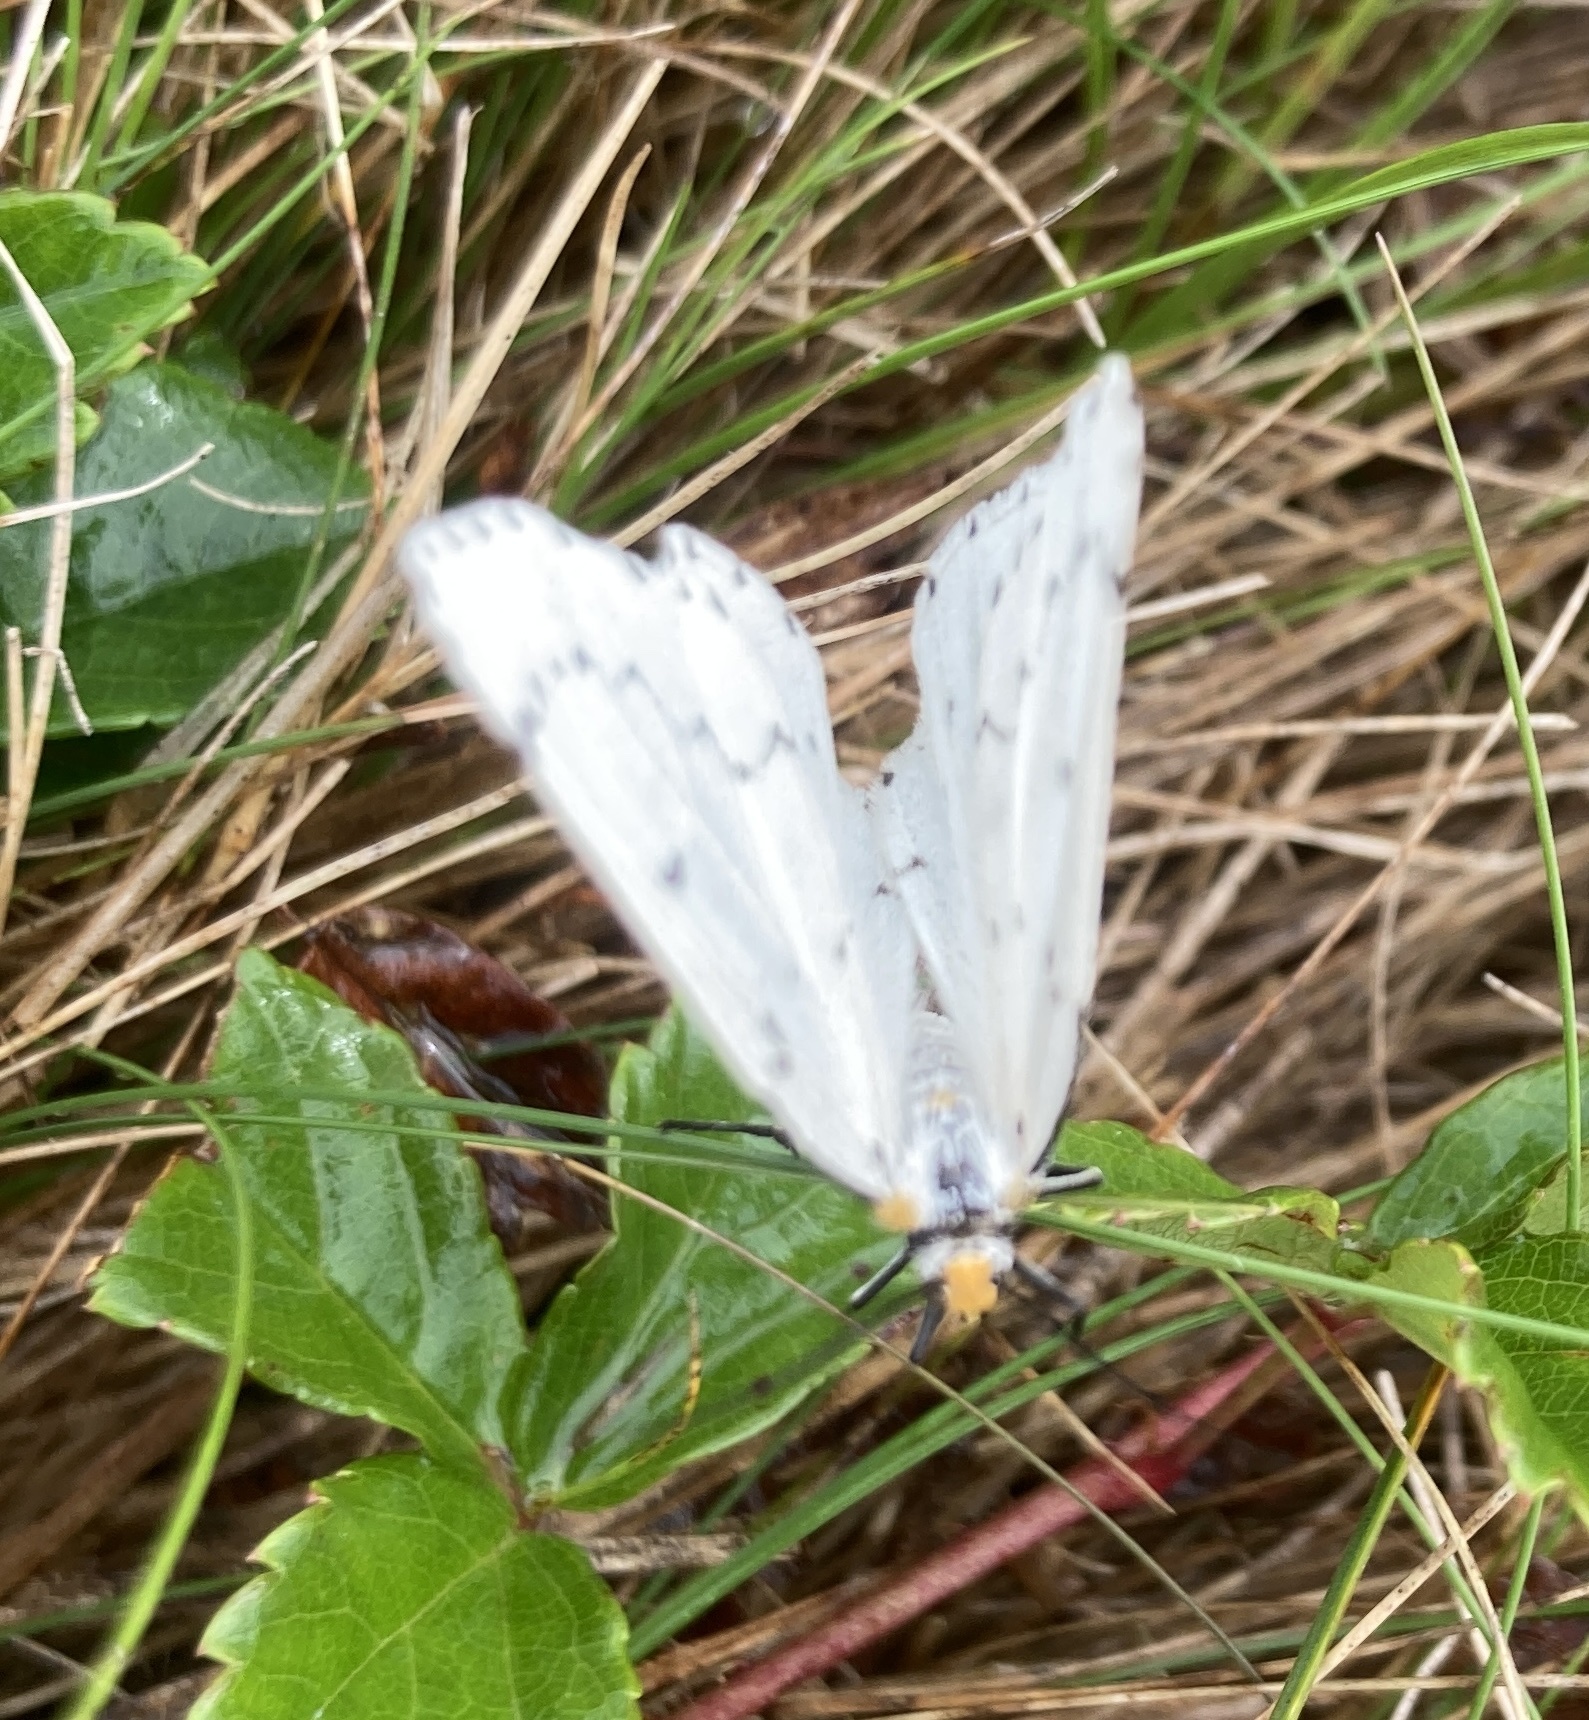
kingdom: Animalia
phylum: Arthropoda
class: Insecta
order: Lepidoptera
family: Geometridae
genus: Cingilia
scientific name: Cingilia catenaria
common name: Chain-dotted geometer
